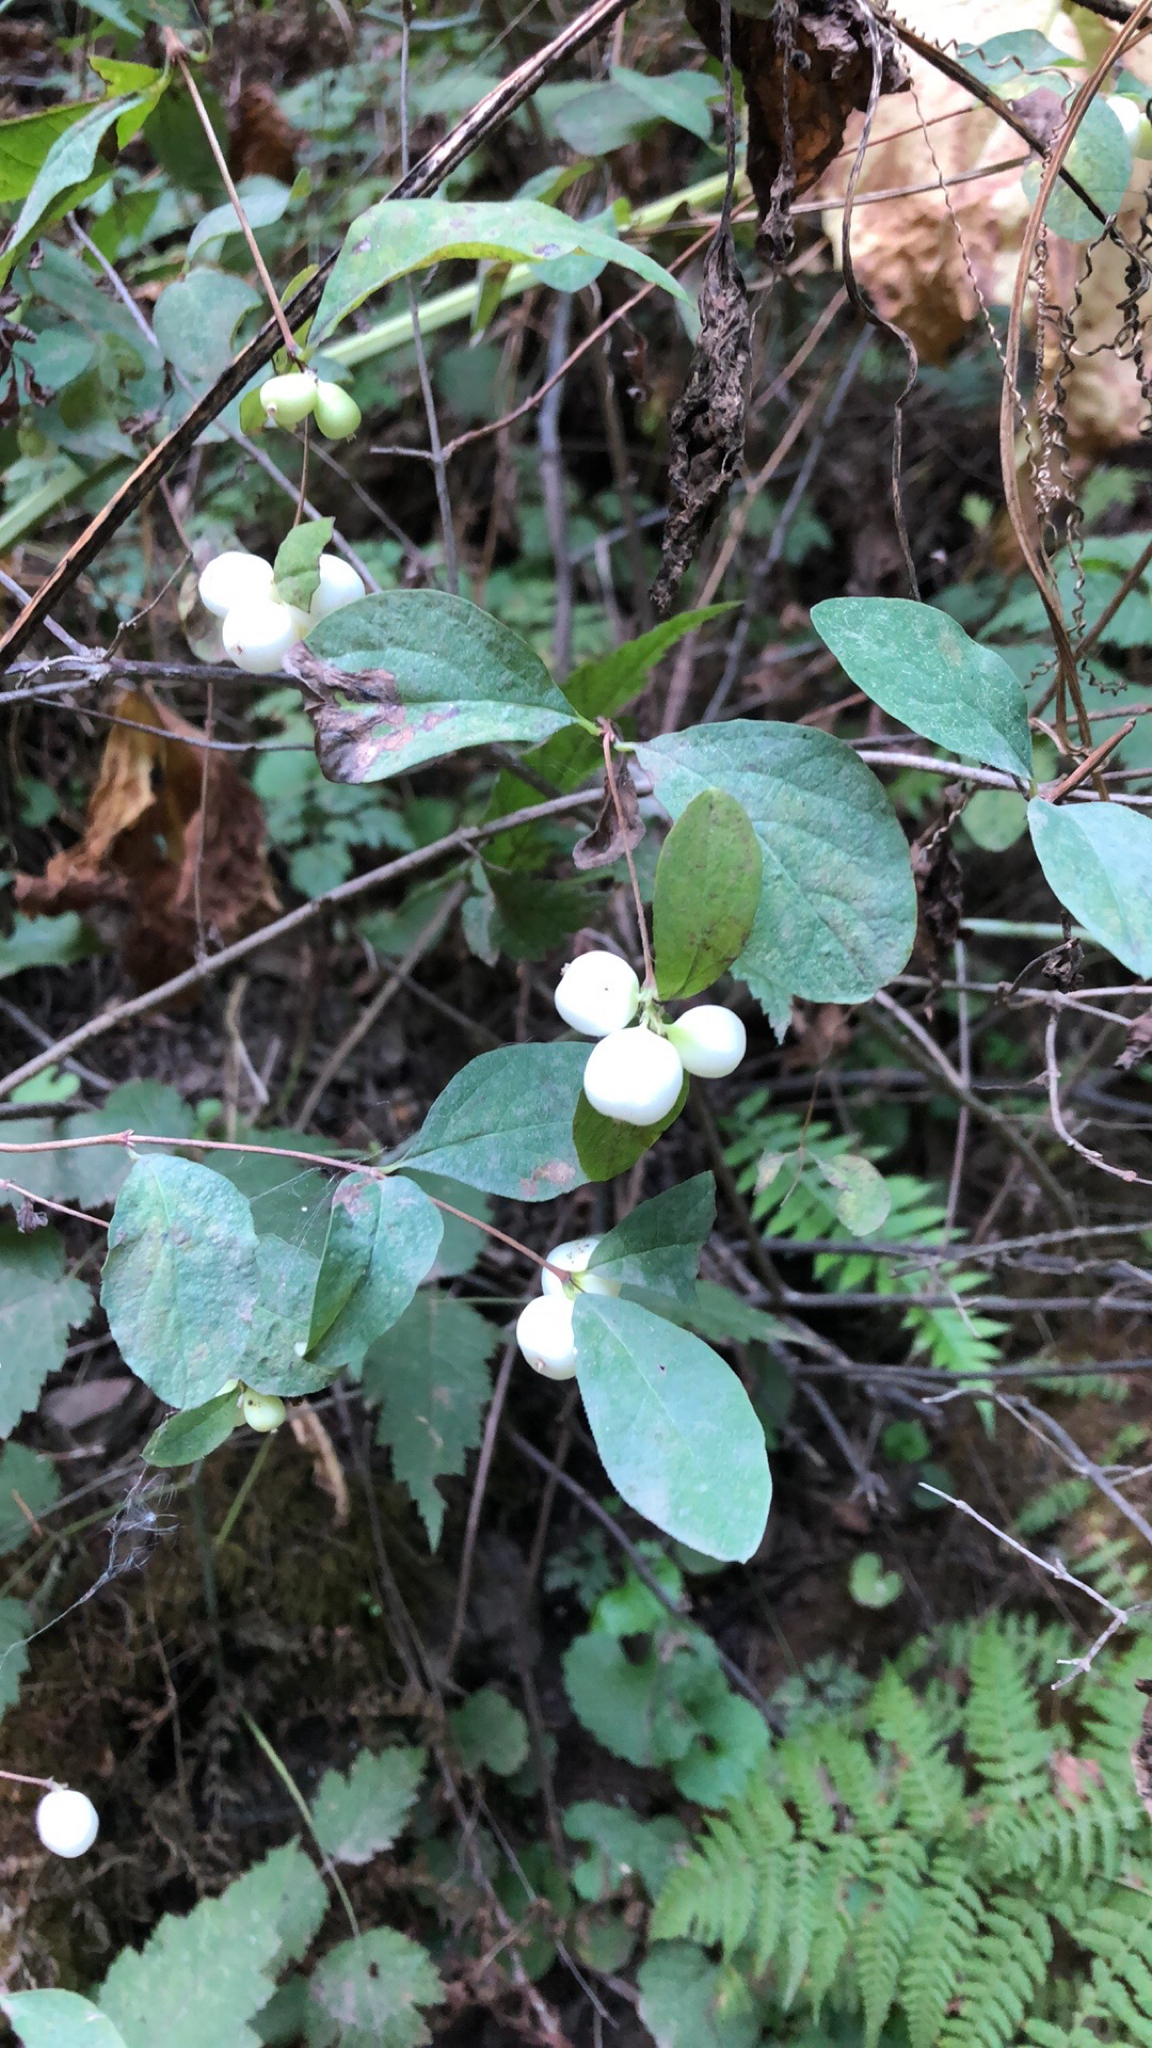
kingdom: Plantae
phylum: Tracheophyta
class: Magnoliopsida
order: Dipsacales
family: Caprifoliaceae
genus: Symphoricarpos
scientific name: Symphoricarpos albus
